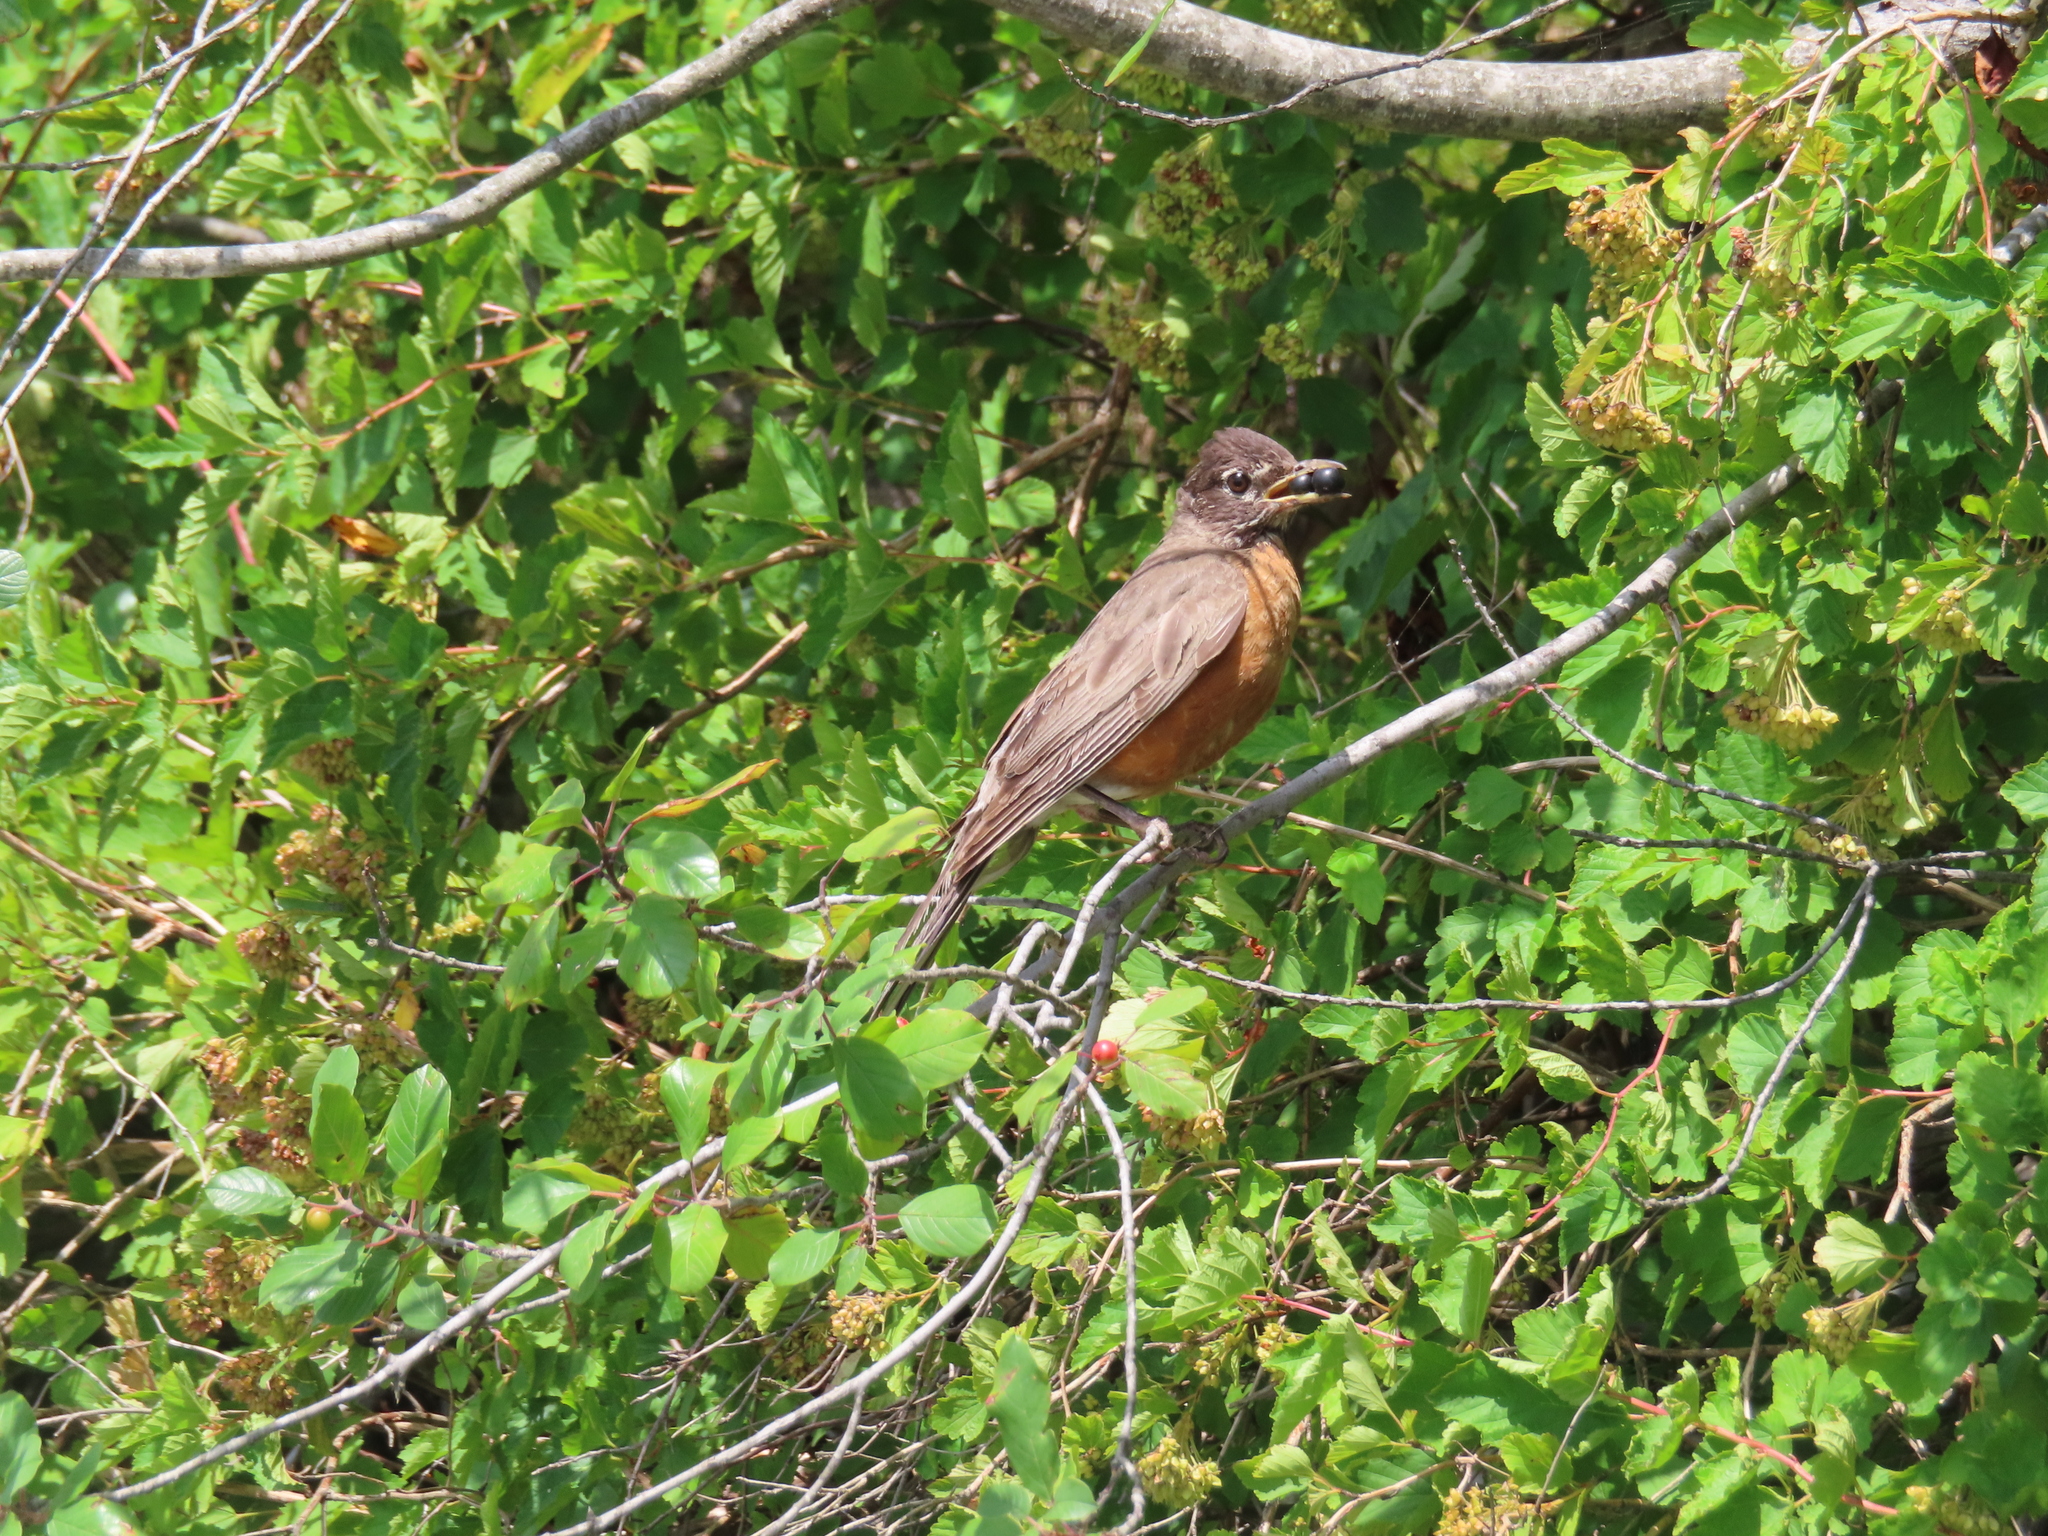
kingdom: Animalia
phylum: Chordata
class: Aves
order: Passeriformes
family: Turdidae
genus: Turdus
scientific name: Turdus migratorius
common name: American robin
